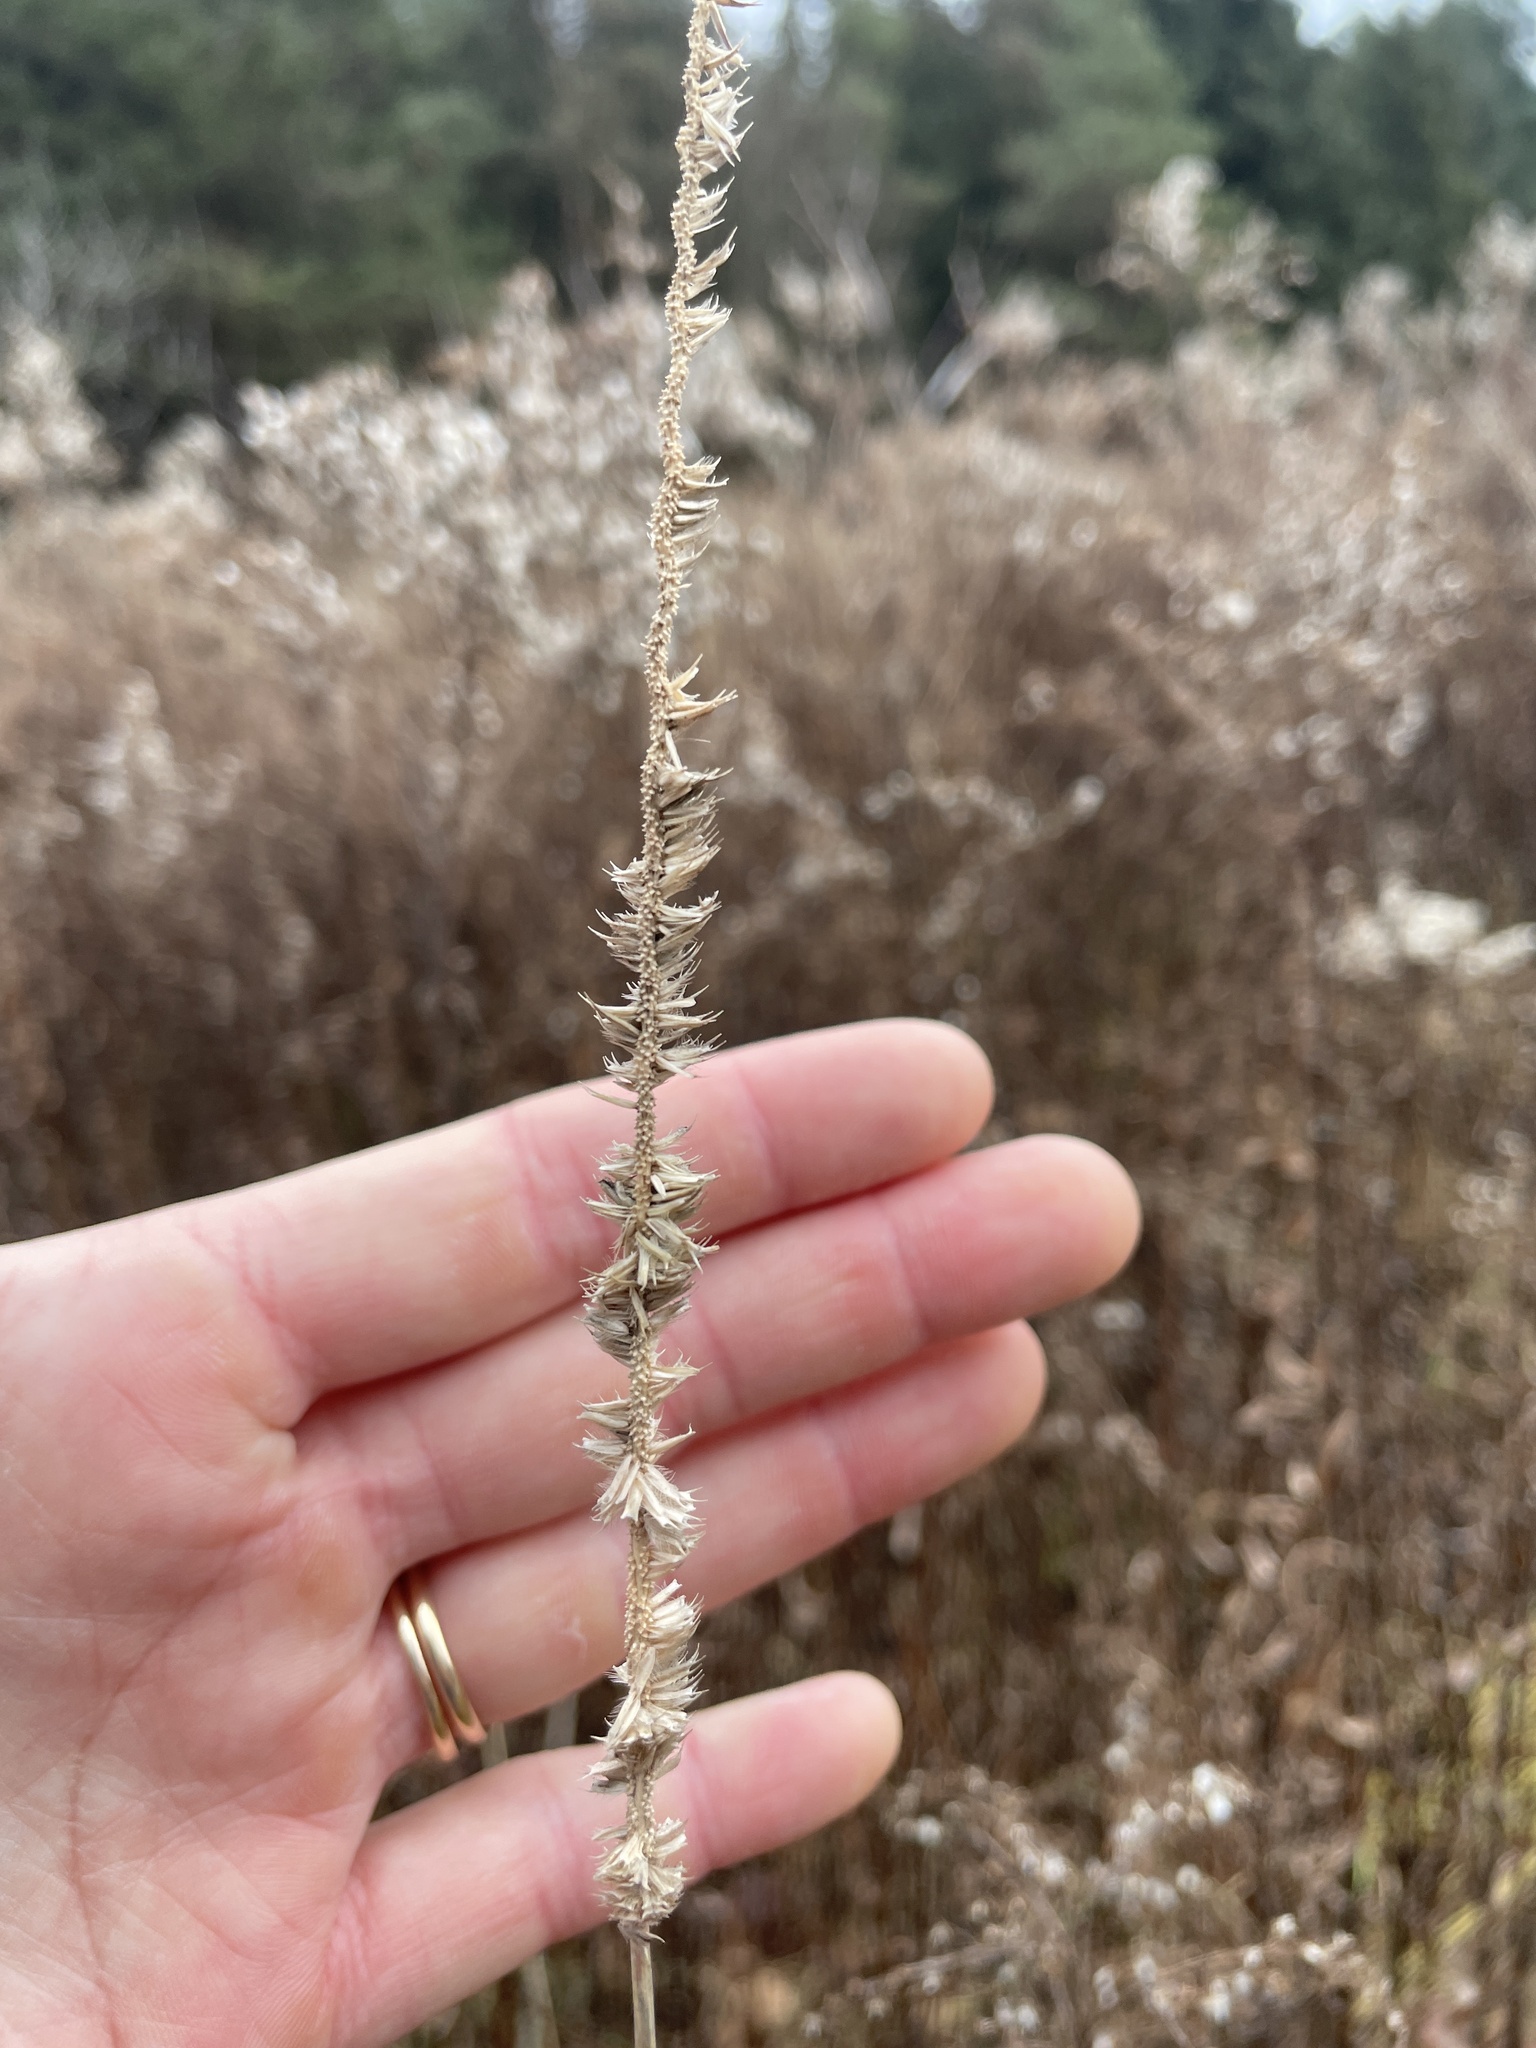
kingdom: Plantae
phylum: Tracheophyta
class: Liliopsida
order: Poales
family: Poaceae
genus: Phleum
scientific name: Phleum pratense
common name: Timothy grass
